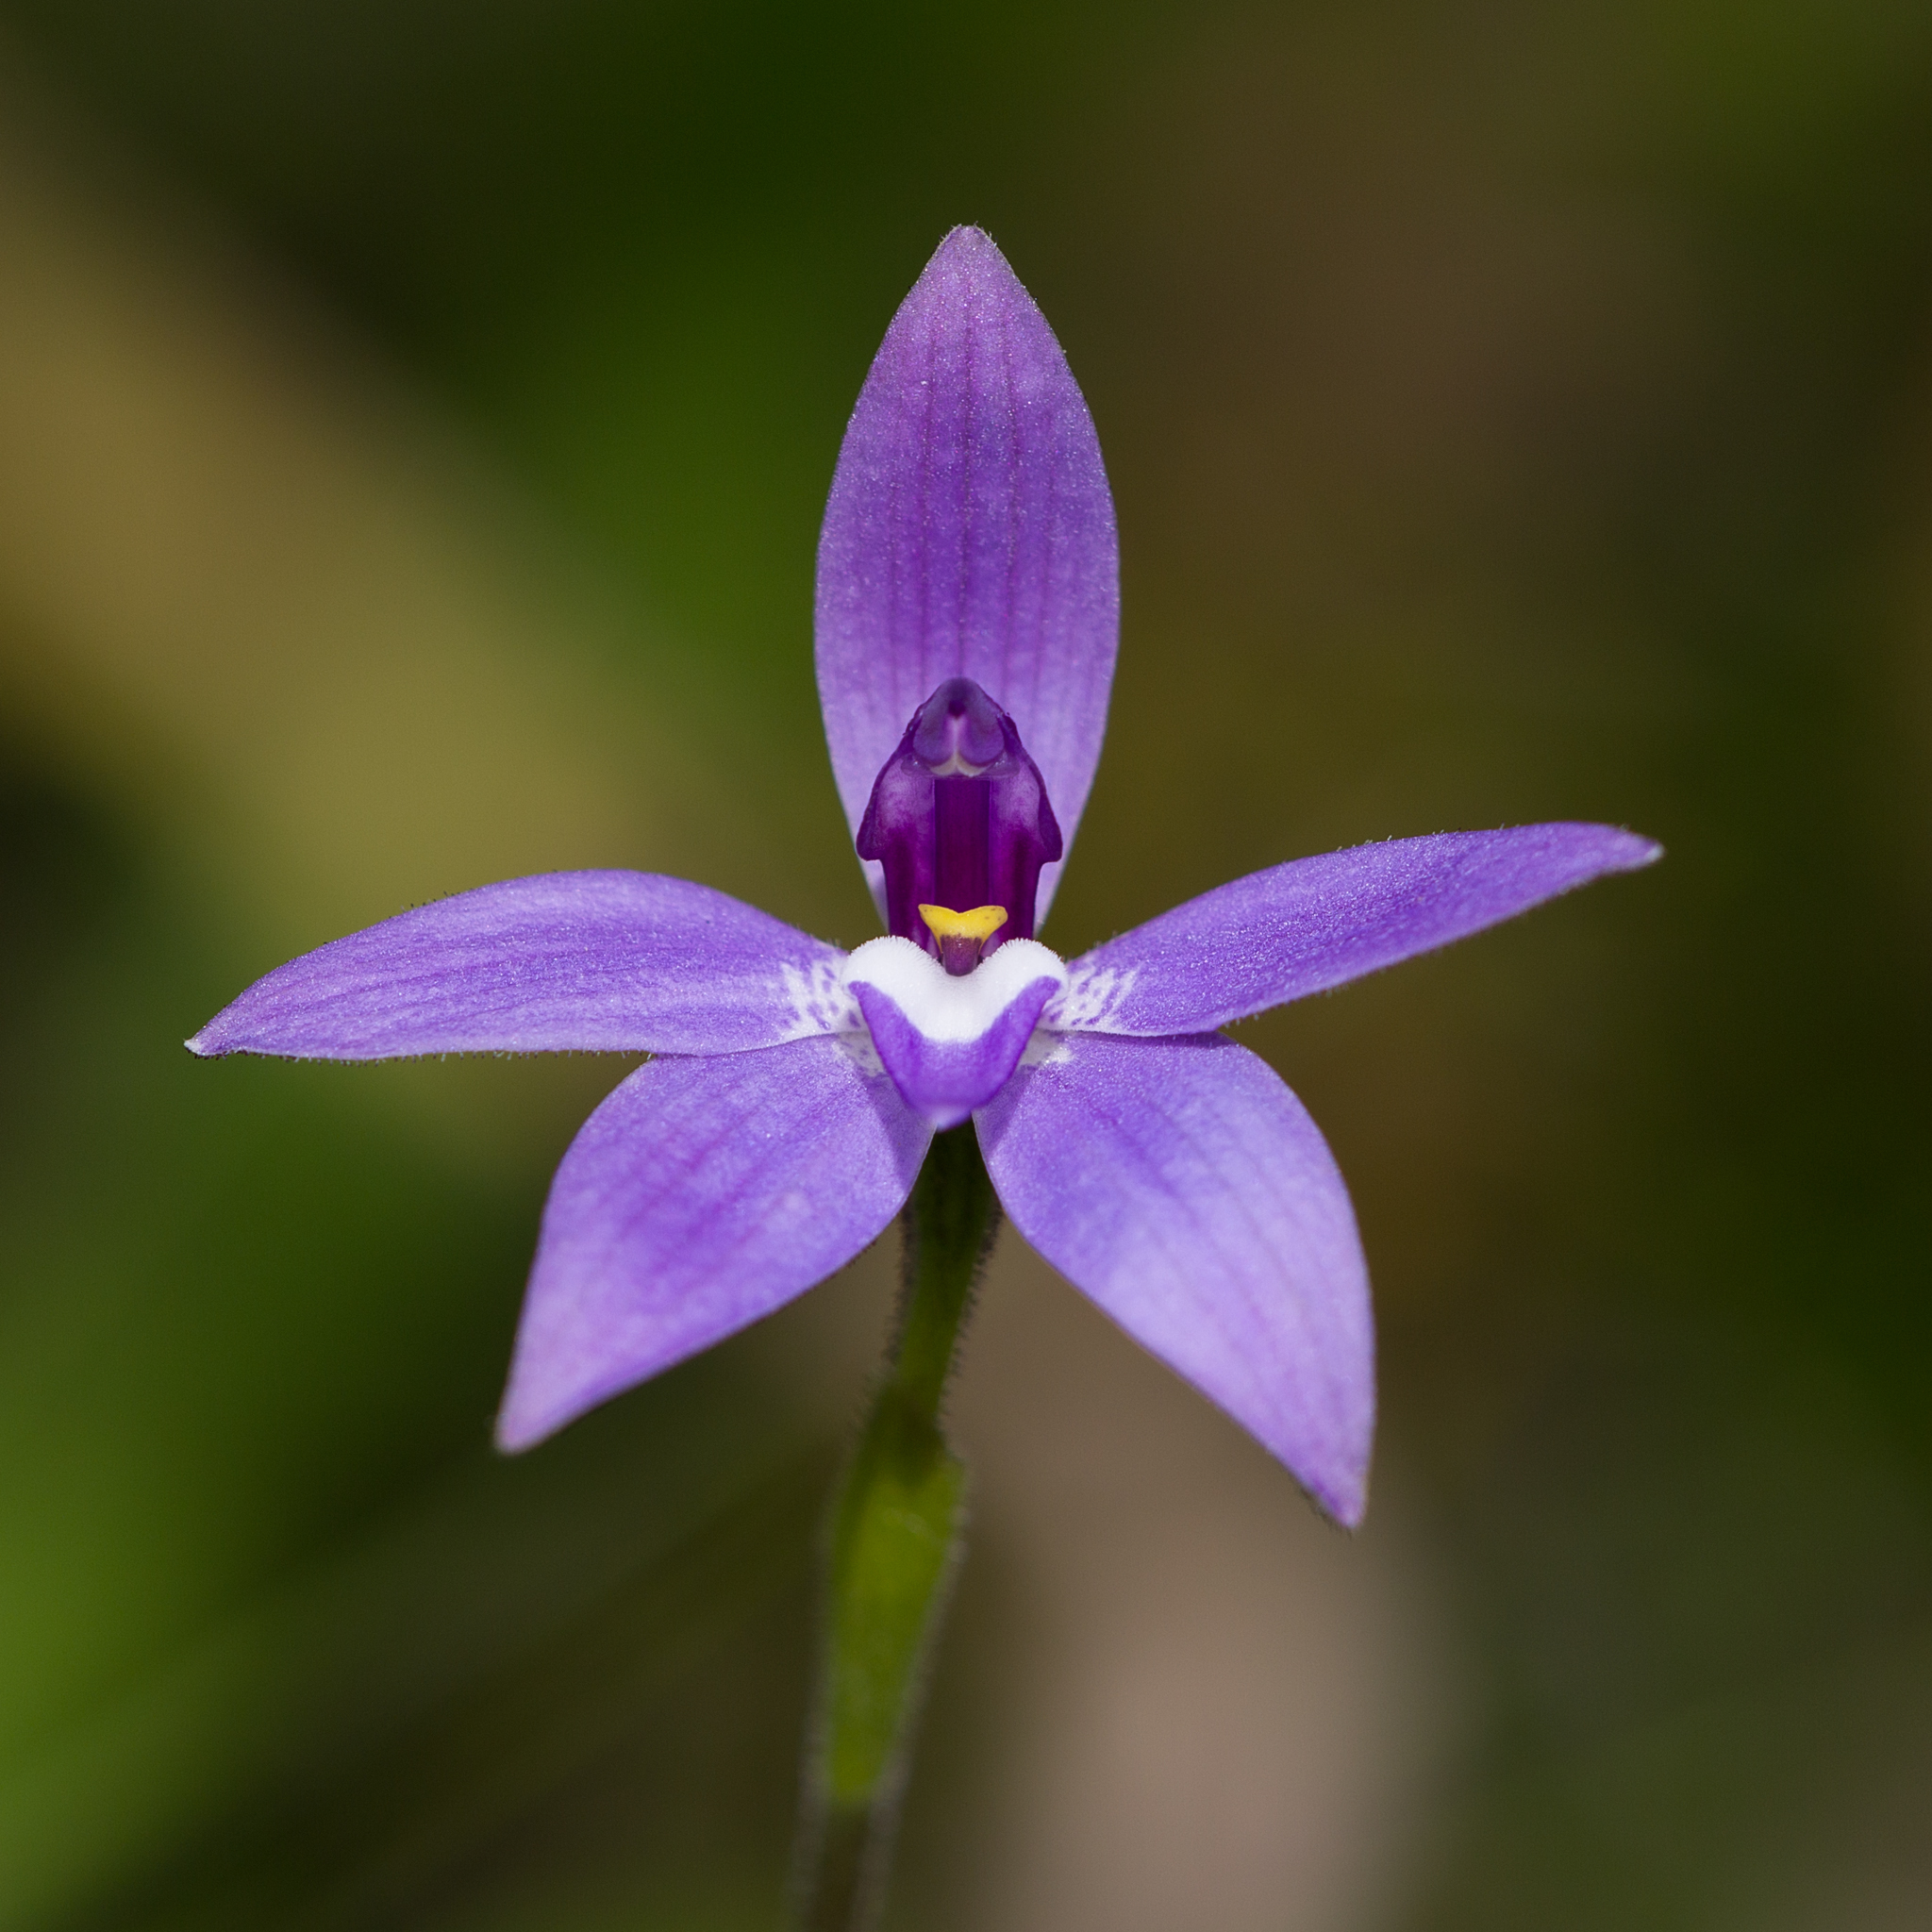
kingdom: Plantae
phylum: Tracheophyta
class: Liliopsida
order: Asparagales
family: Orchidaceae
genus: Caladenia
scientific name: Caladenia major
